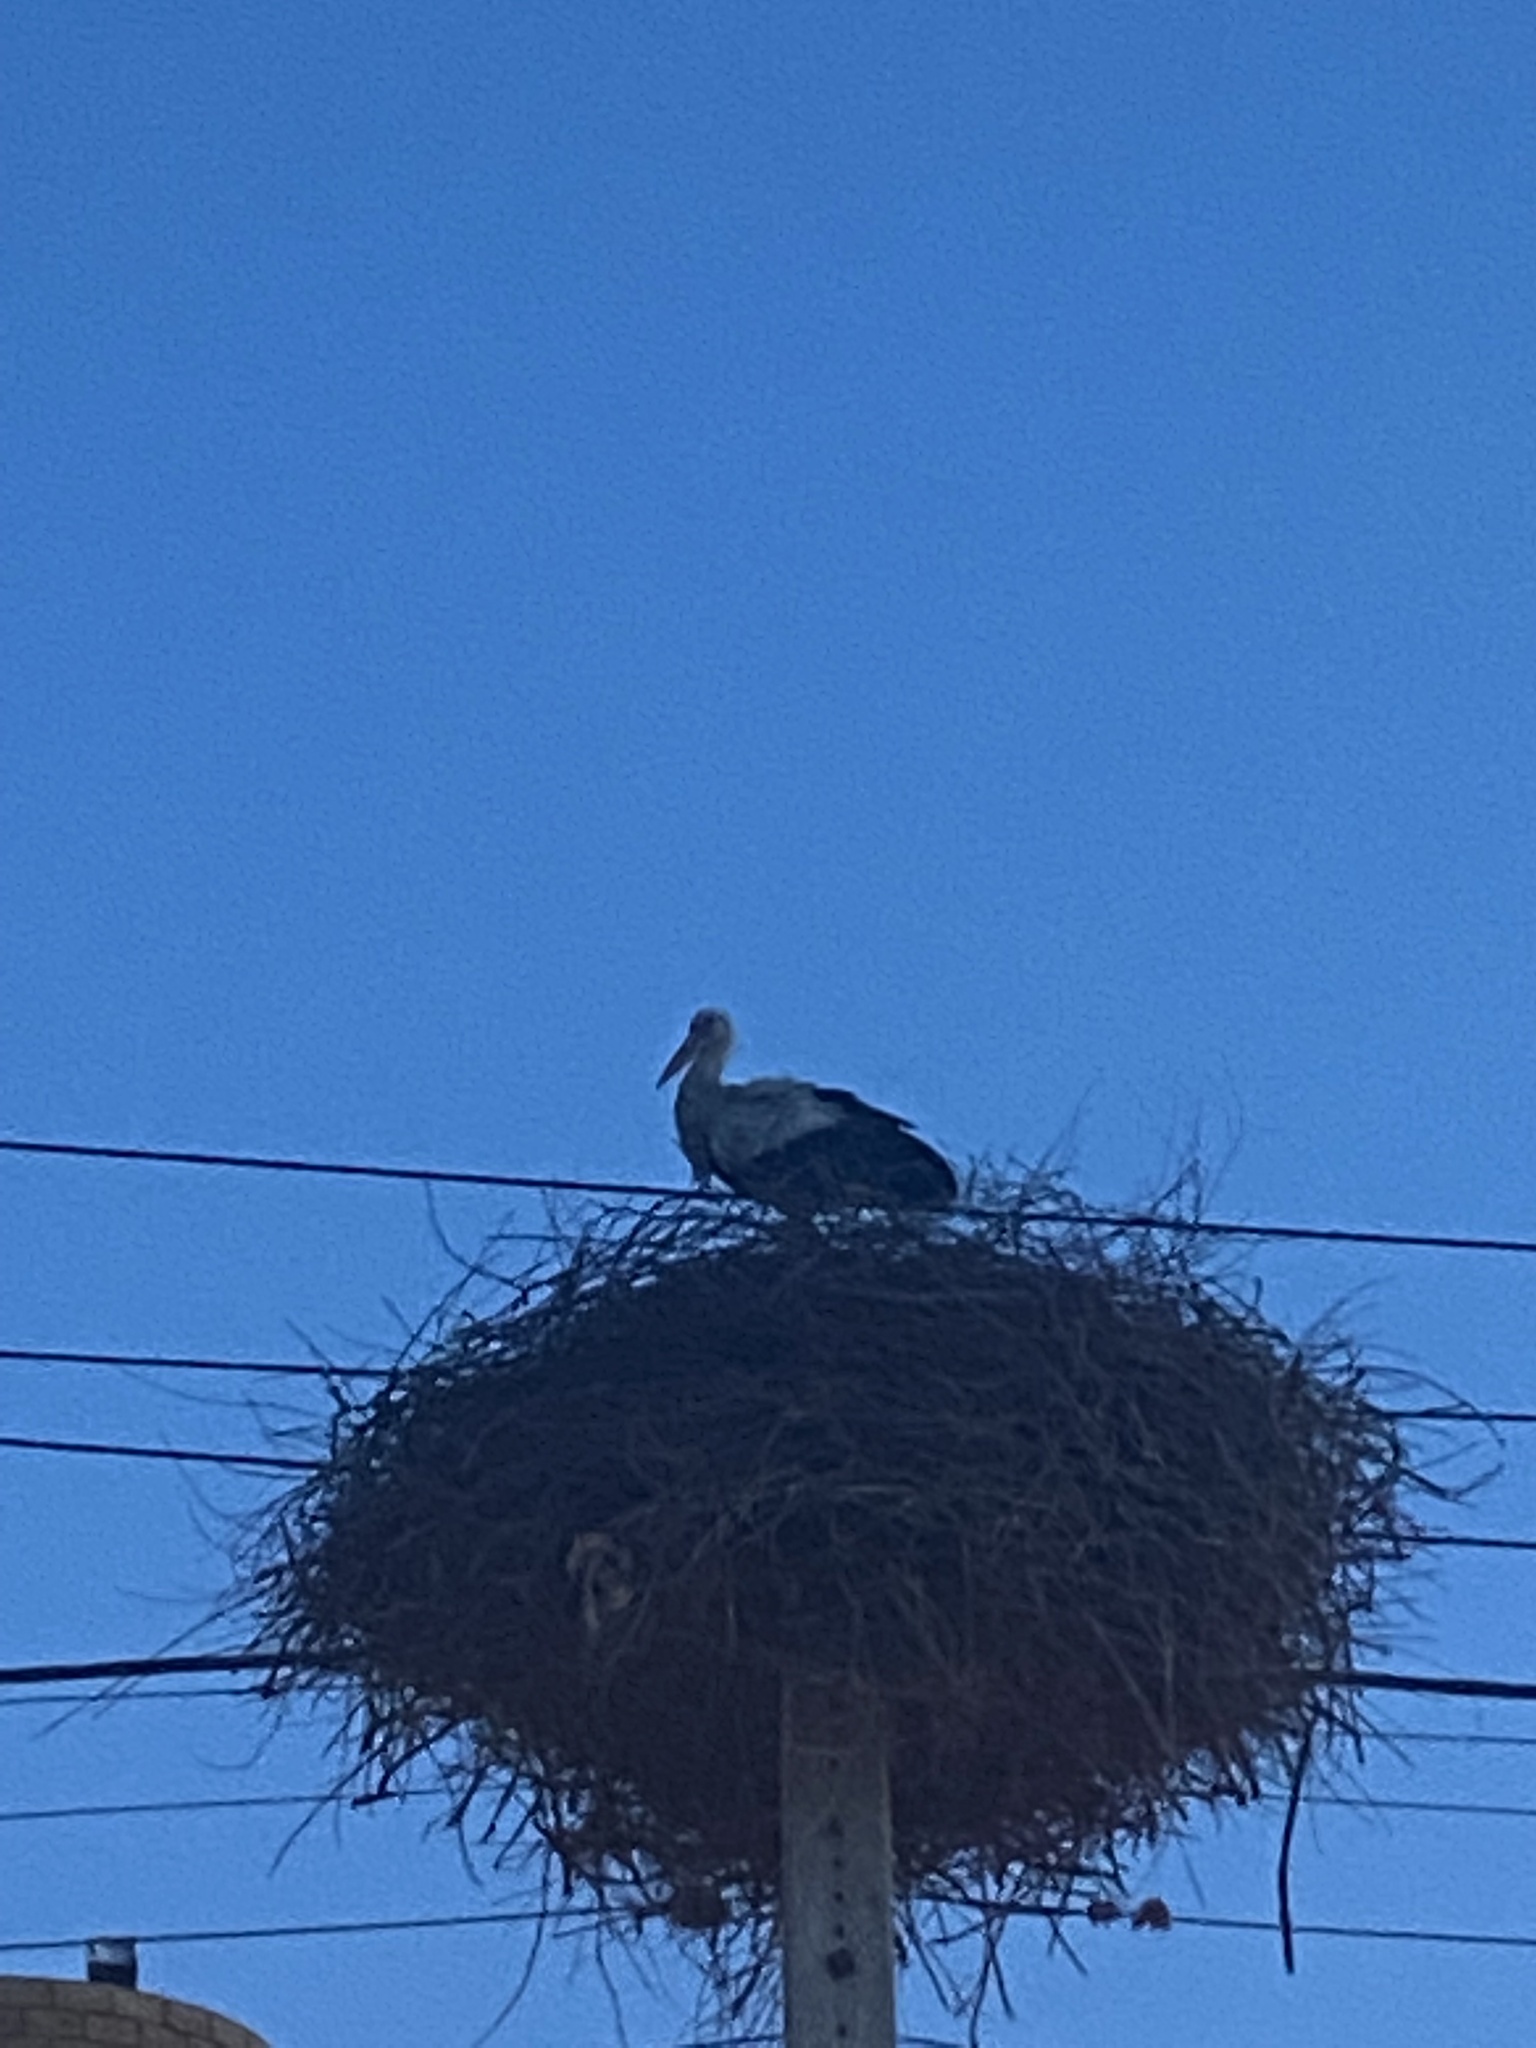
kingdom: Animalia
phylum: Chordata
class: Aves
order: Ciconiiformes
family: Ciconiidae
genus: Ciconia
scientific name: Ciconia ciconia
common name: White stork
